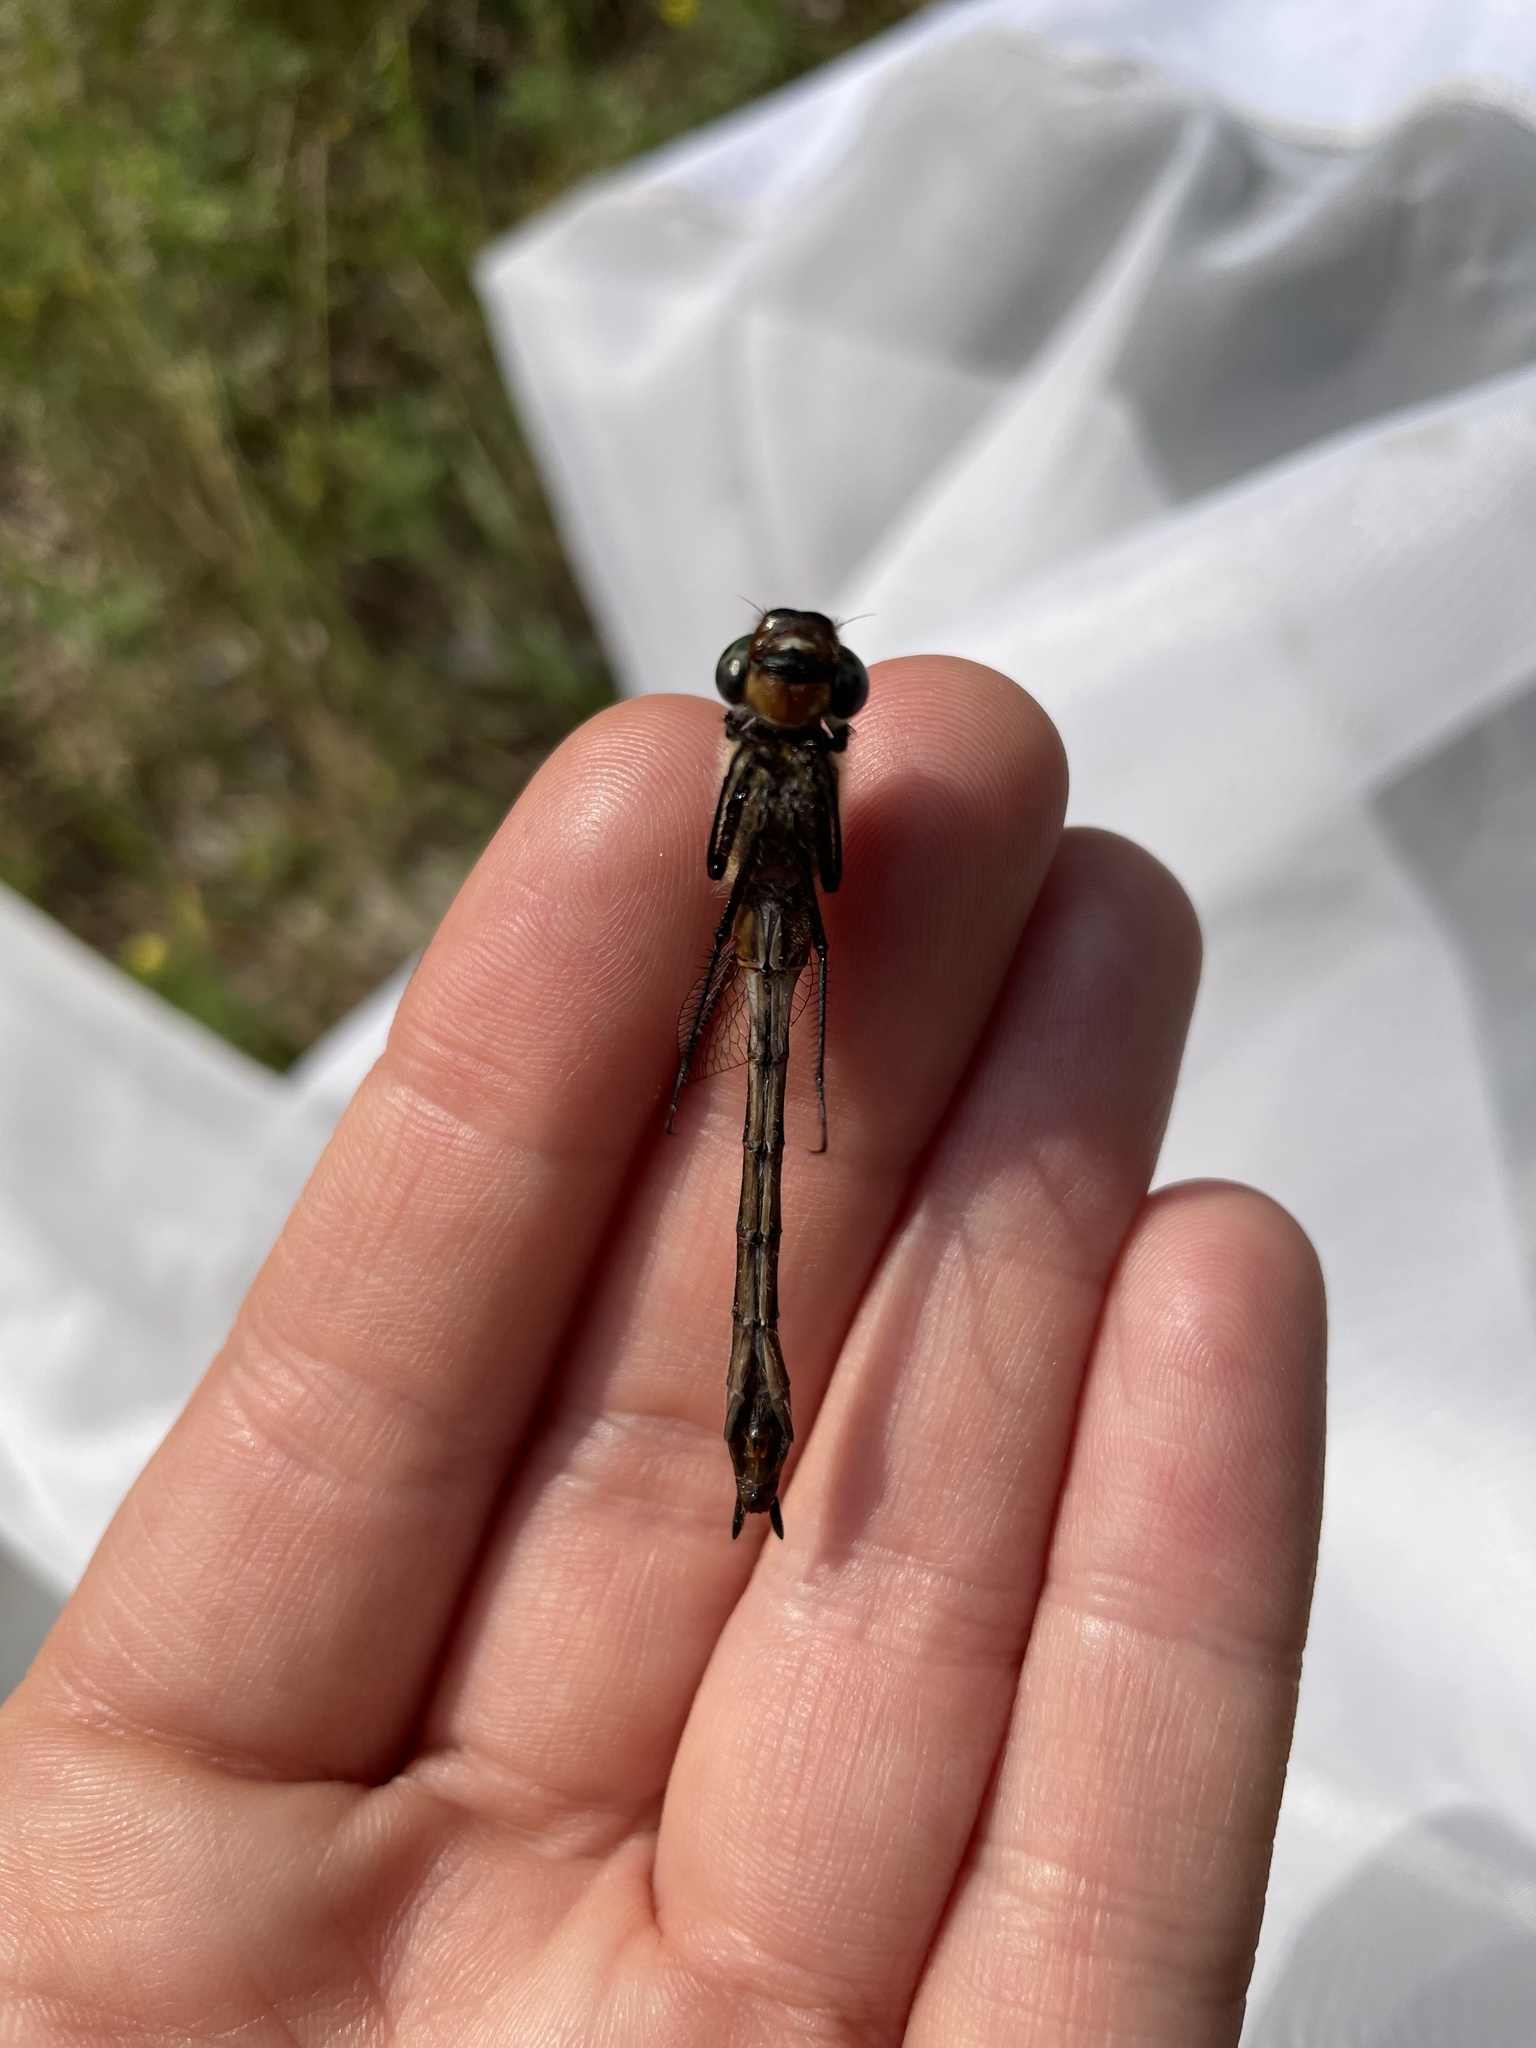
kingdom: Animalia
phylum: Arthropoda
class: Insecta
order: Odonata
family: Corduliidae
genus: Cordulia
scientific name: Cordulia shurtleffii
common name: American emerald
